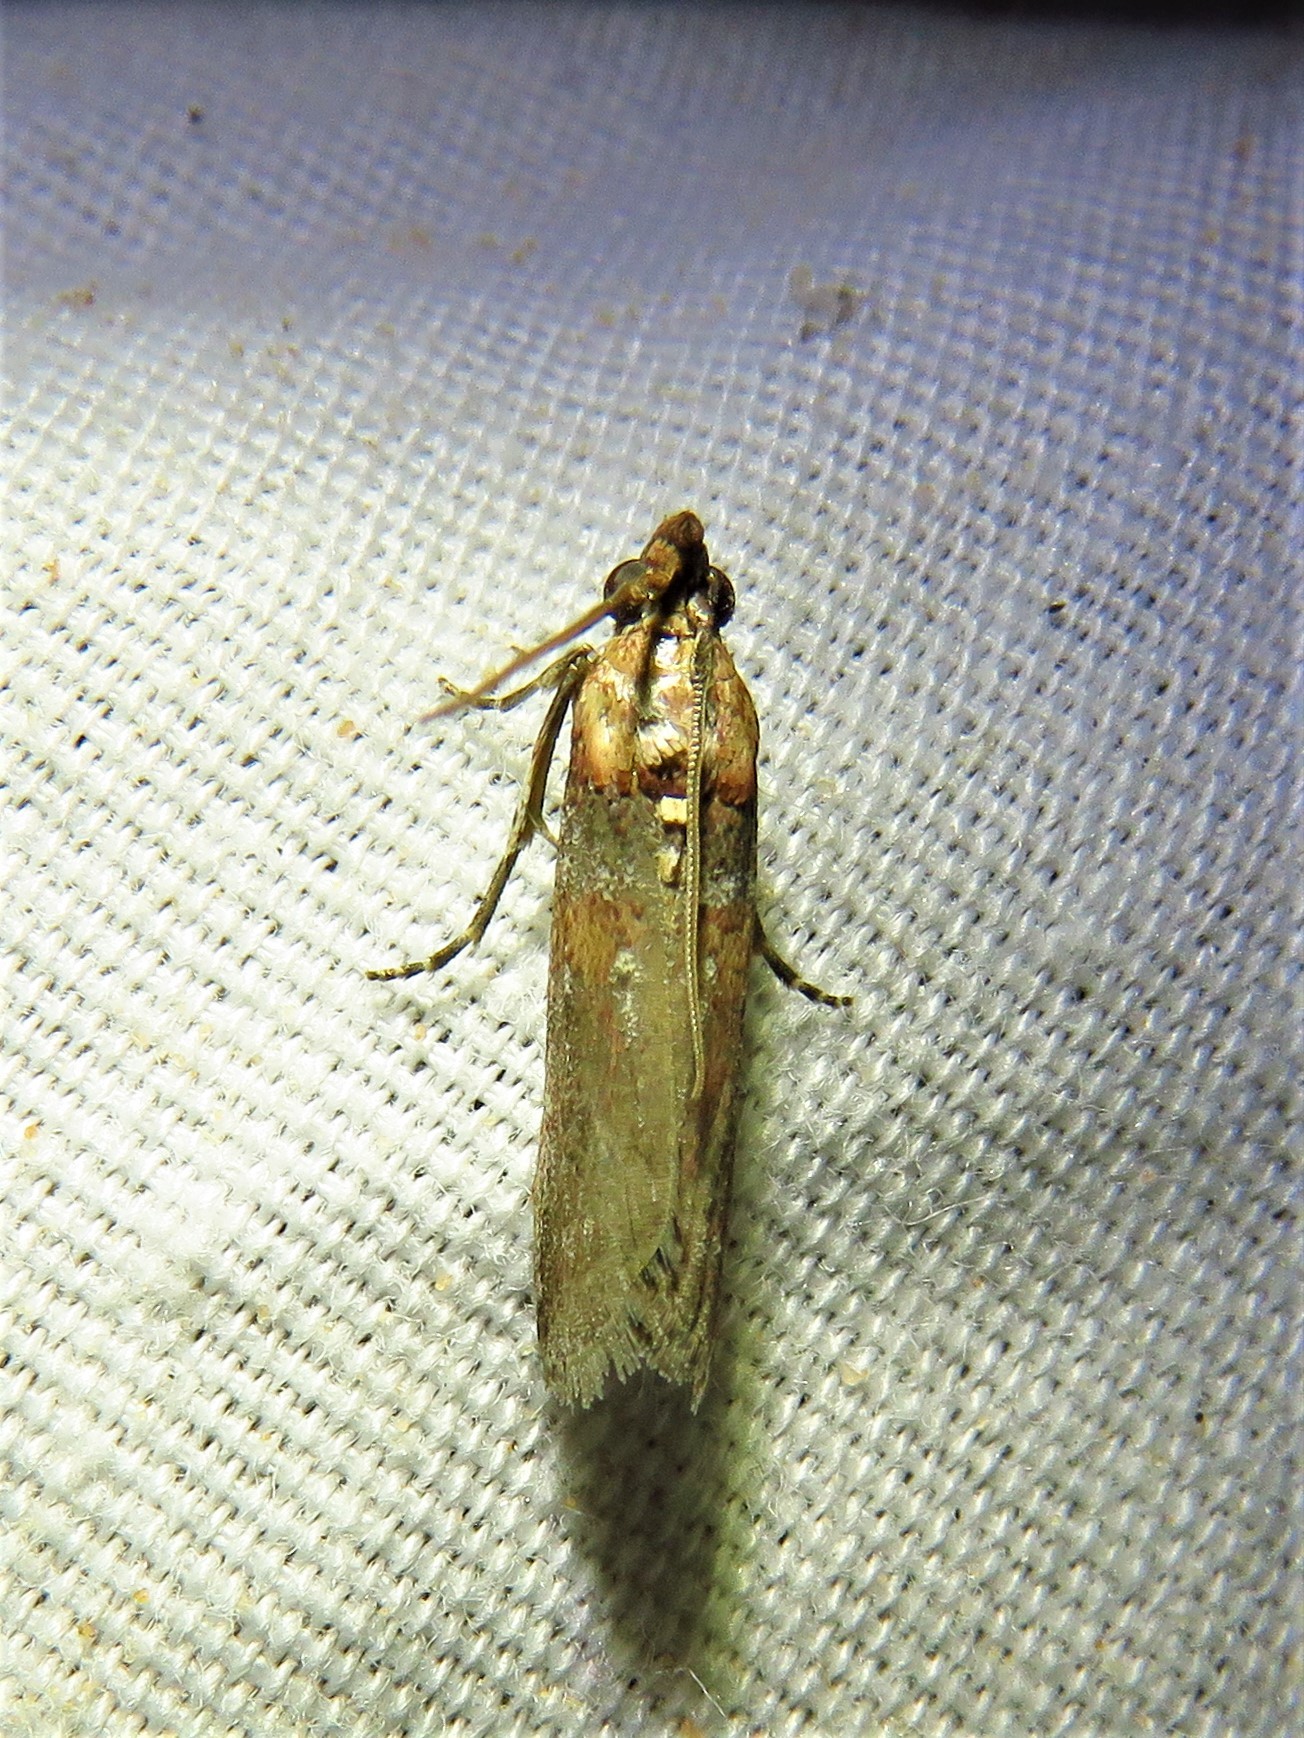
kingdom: Animalia
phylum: Arthropoda
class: Insecta
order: Lepidoptera
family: Pyralidae
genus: Adelphia
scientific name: Adelphia petrella
